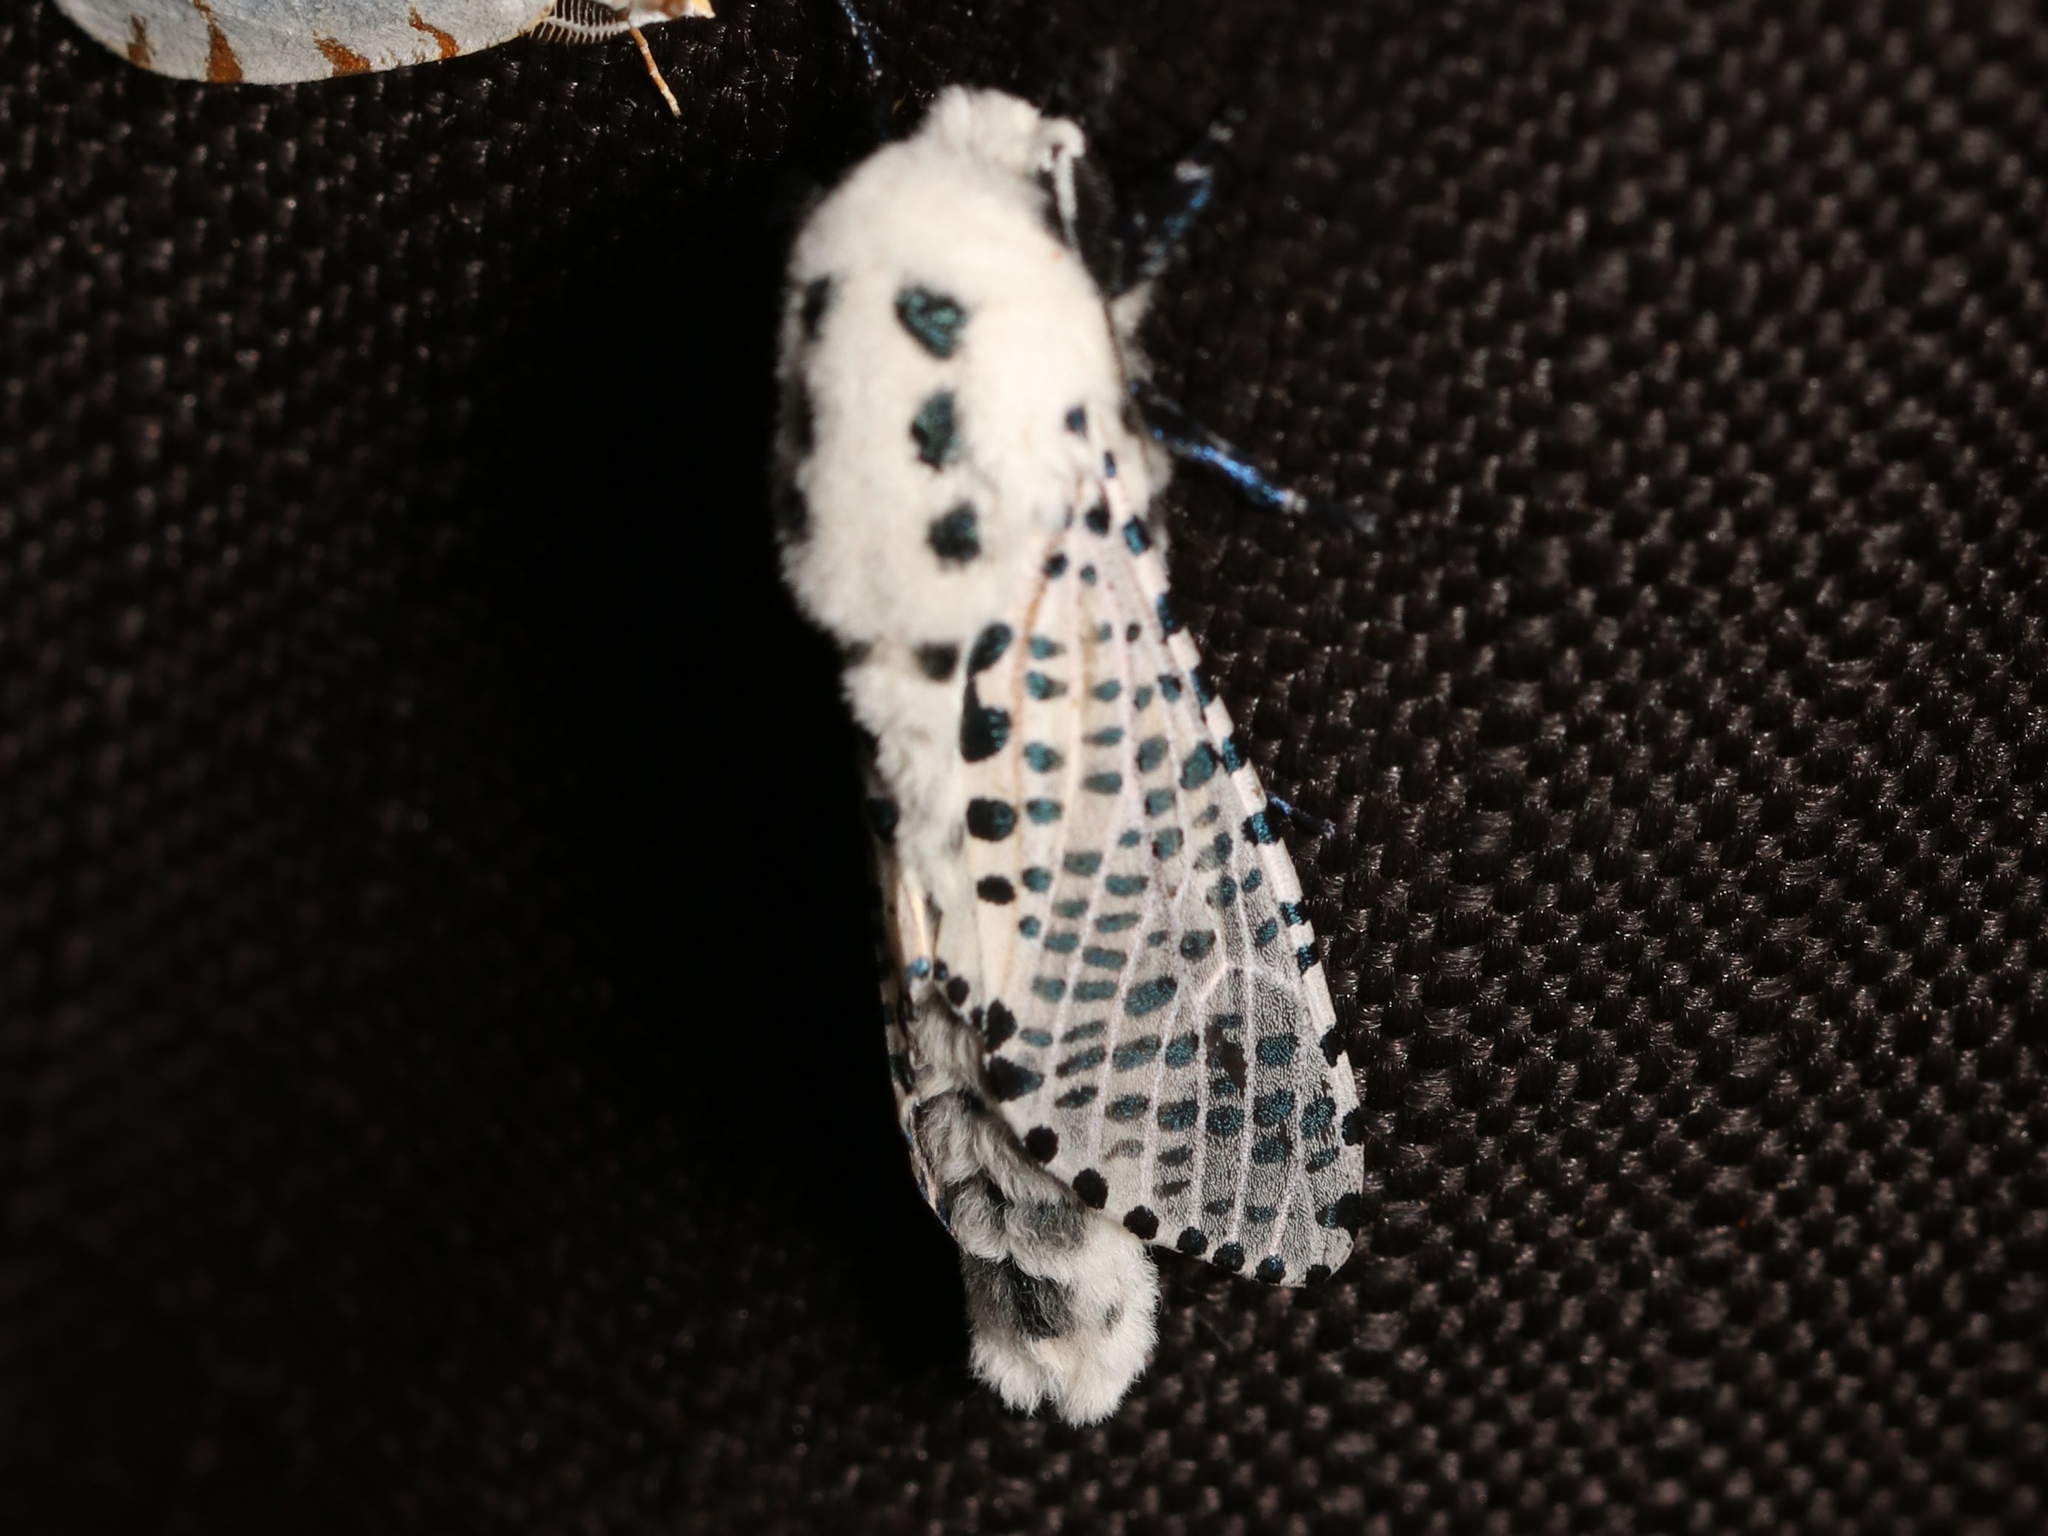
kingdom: Animalia
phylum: Arthropoda
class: Insecta
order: Lepidoptera
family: Cossidae
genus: Zeuzera
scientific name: Zeuzera pyrina
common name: Leopard moth
